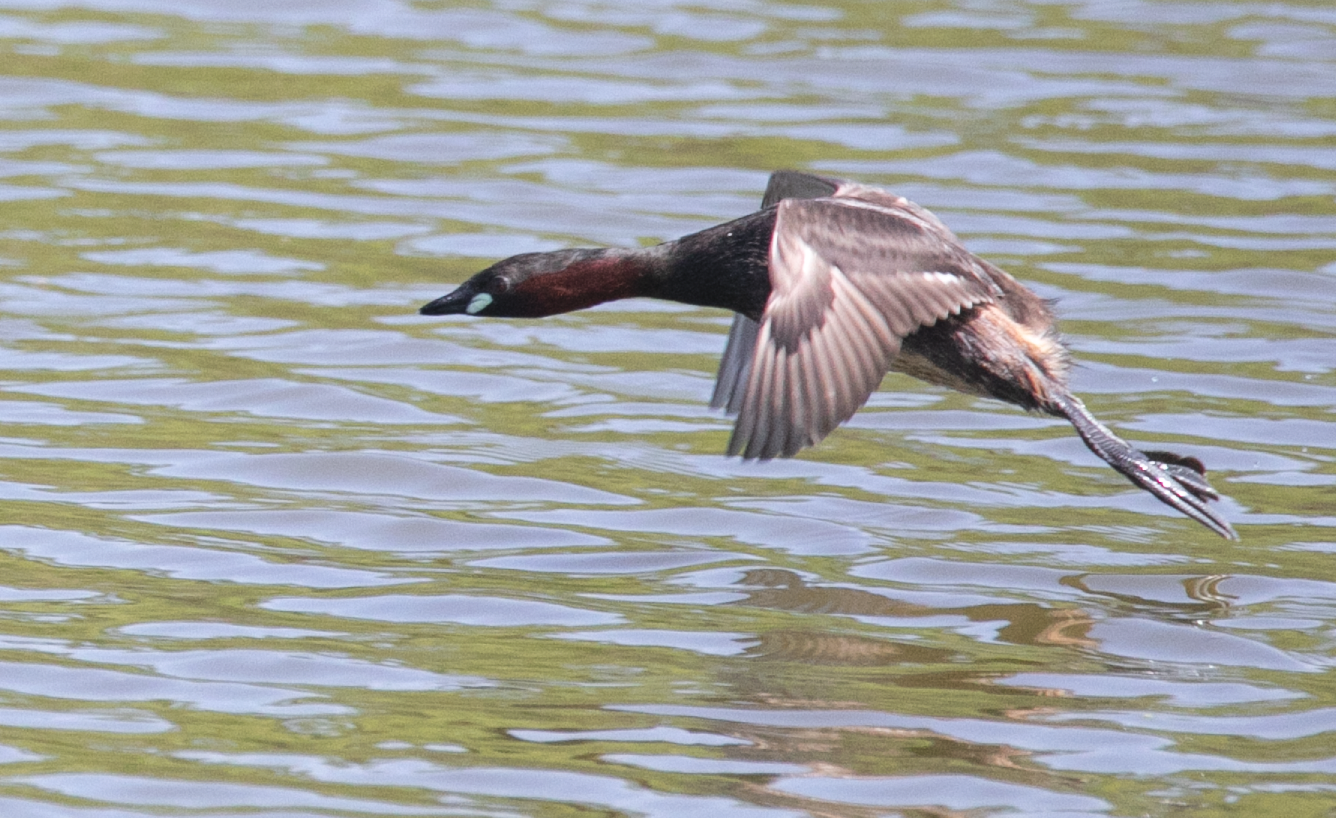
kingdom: Animalia
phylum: Chordata
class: Aves
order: Podicipediformes
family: Podicipedidae
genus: Tachybaptus
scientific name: Tachybaptus ruficollis
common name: Little grebe
